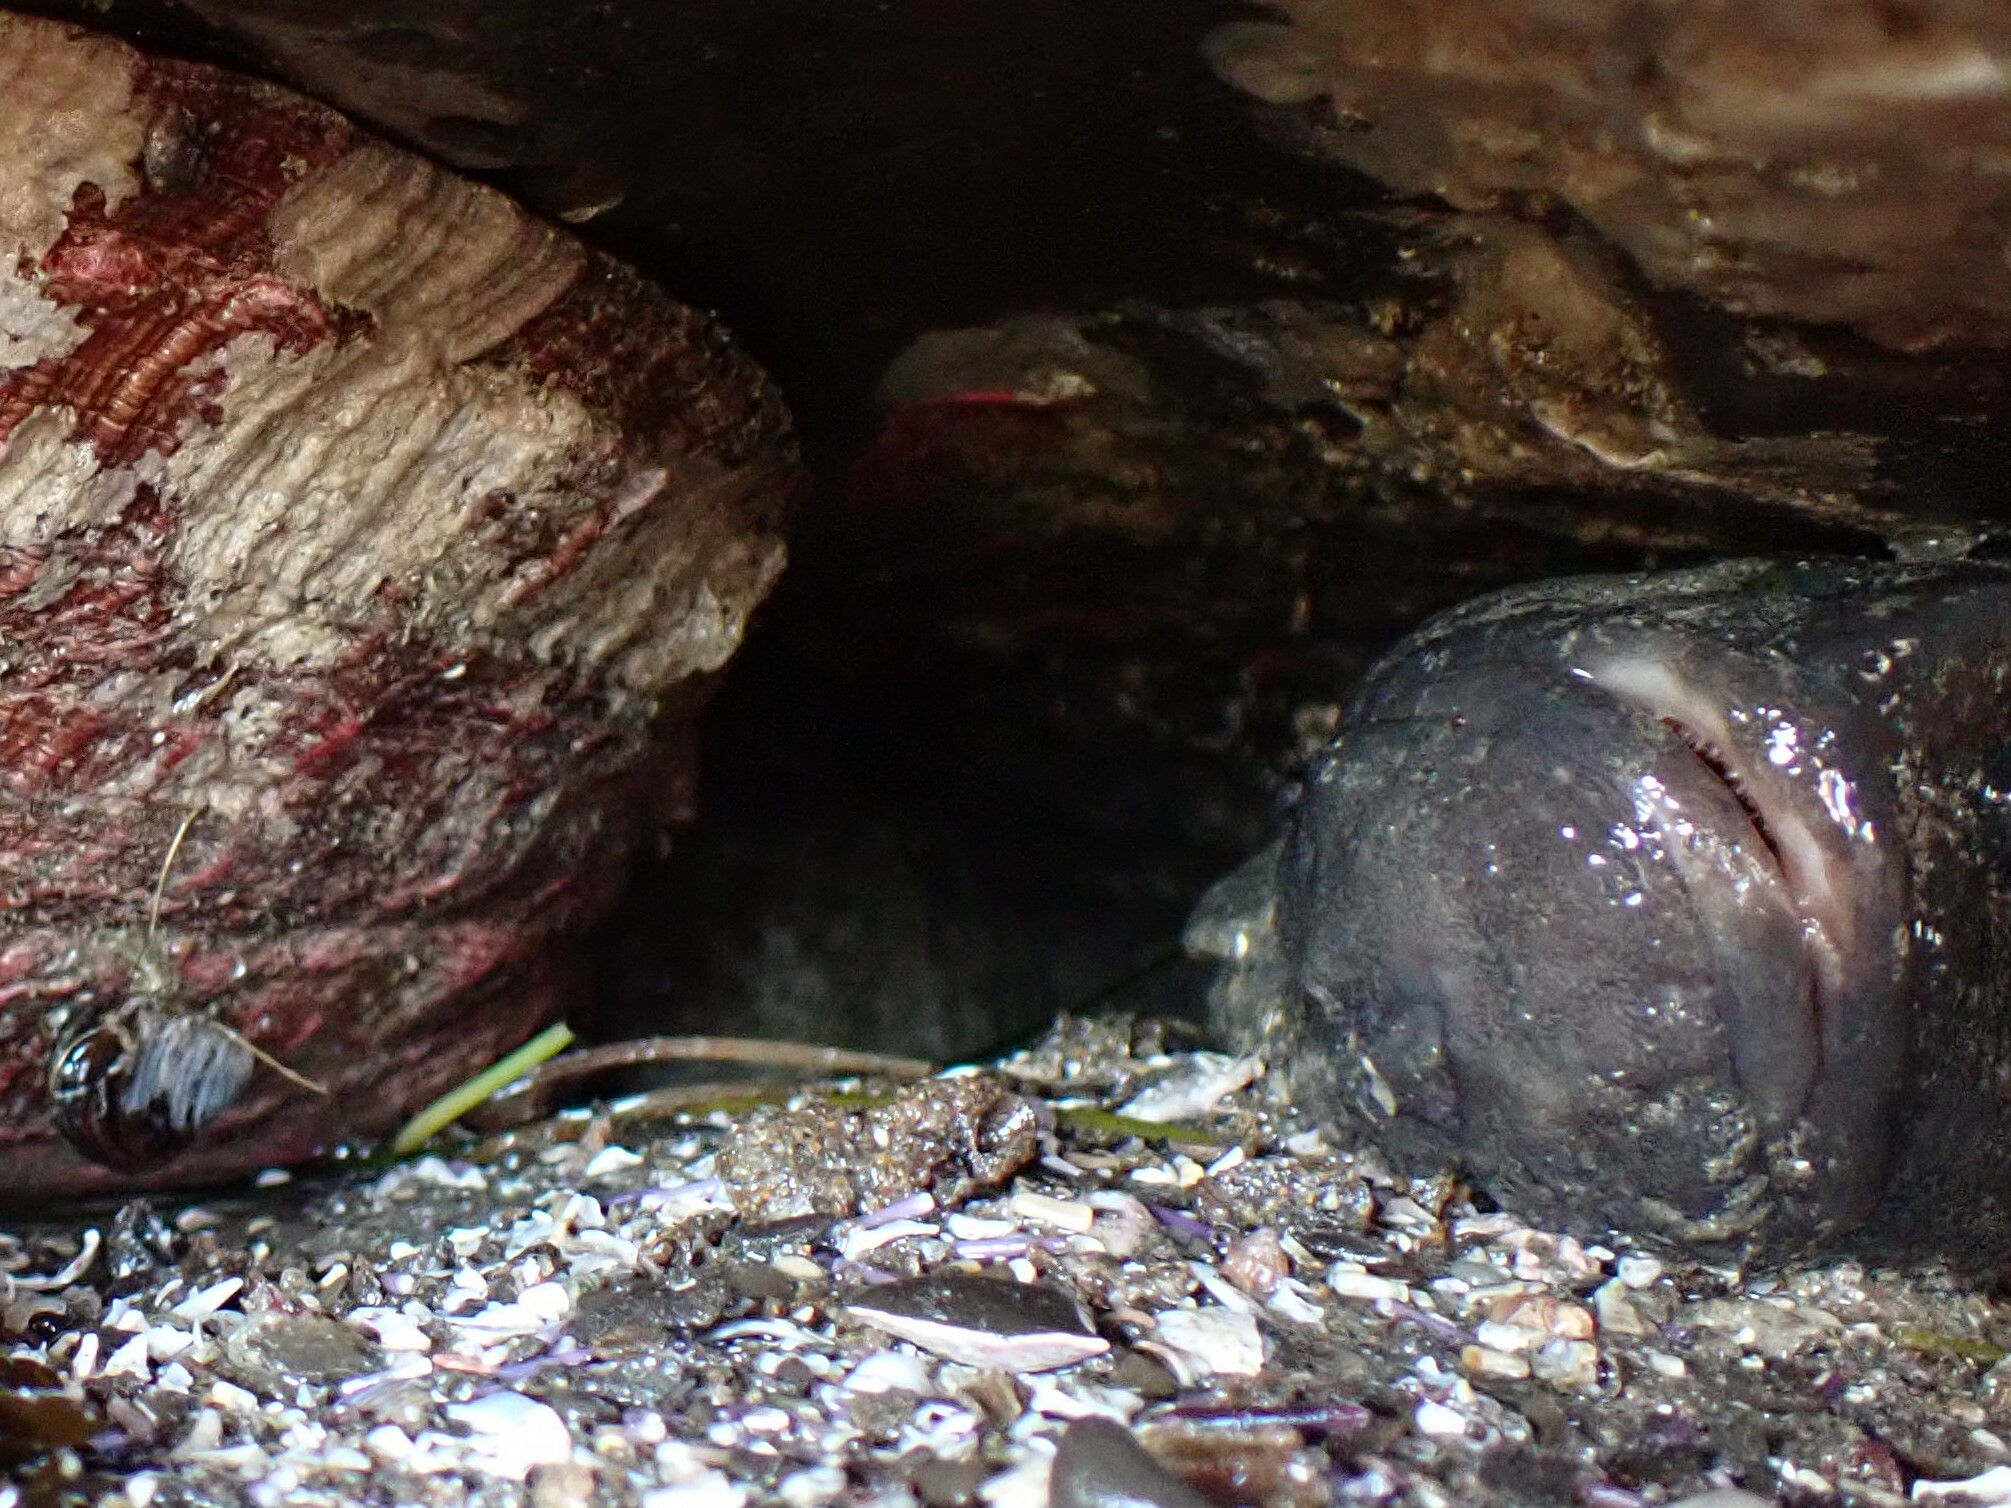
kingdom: Animalia
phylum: Chordata
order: Perciformes
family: Stichaeidae
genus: Cebidichthys
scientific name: Cebidichthys violaceus
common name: Monkeyface prickleback
